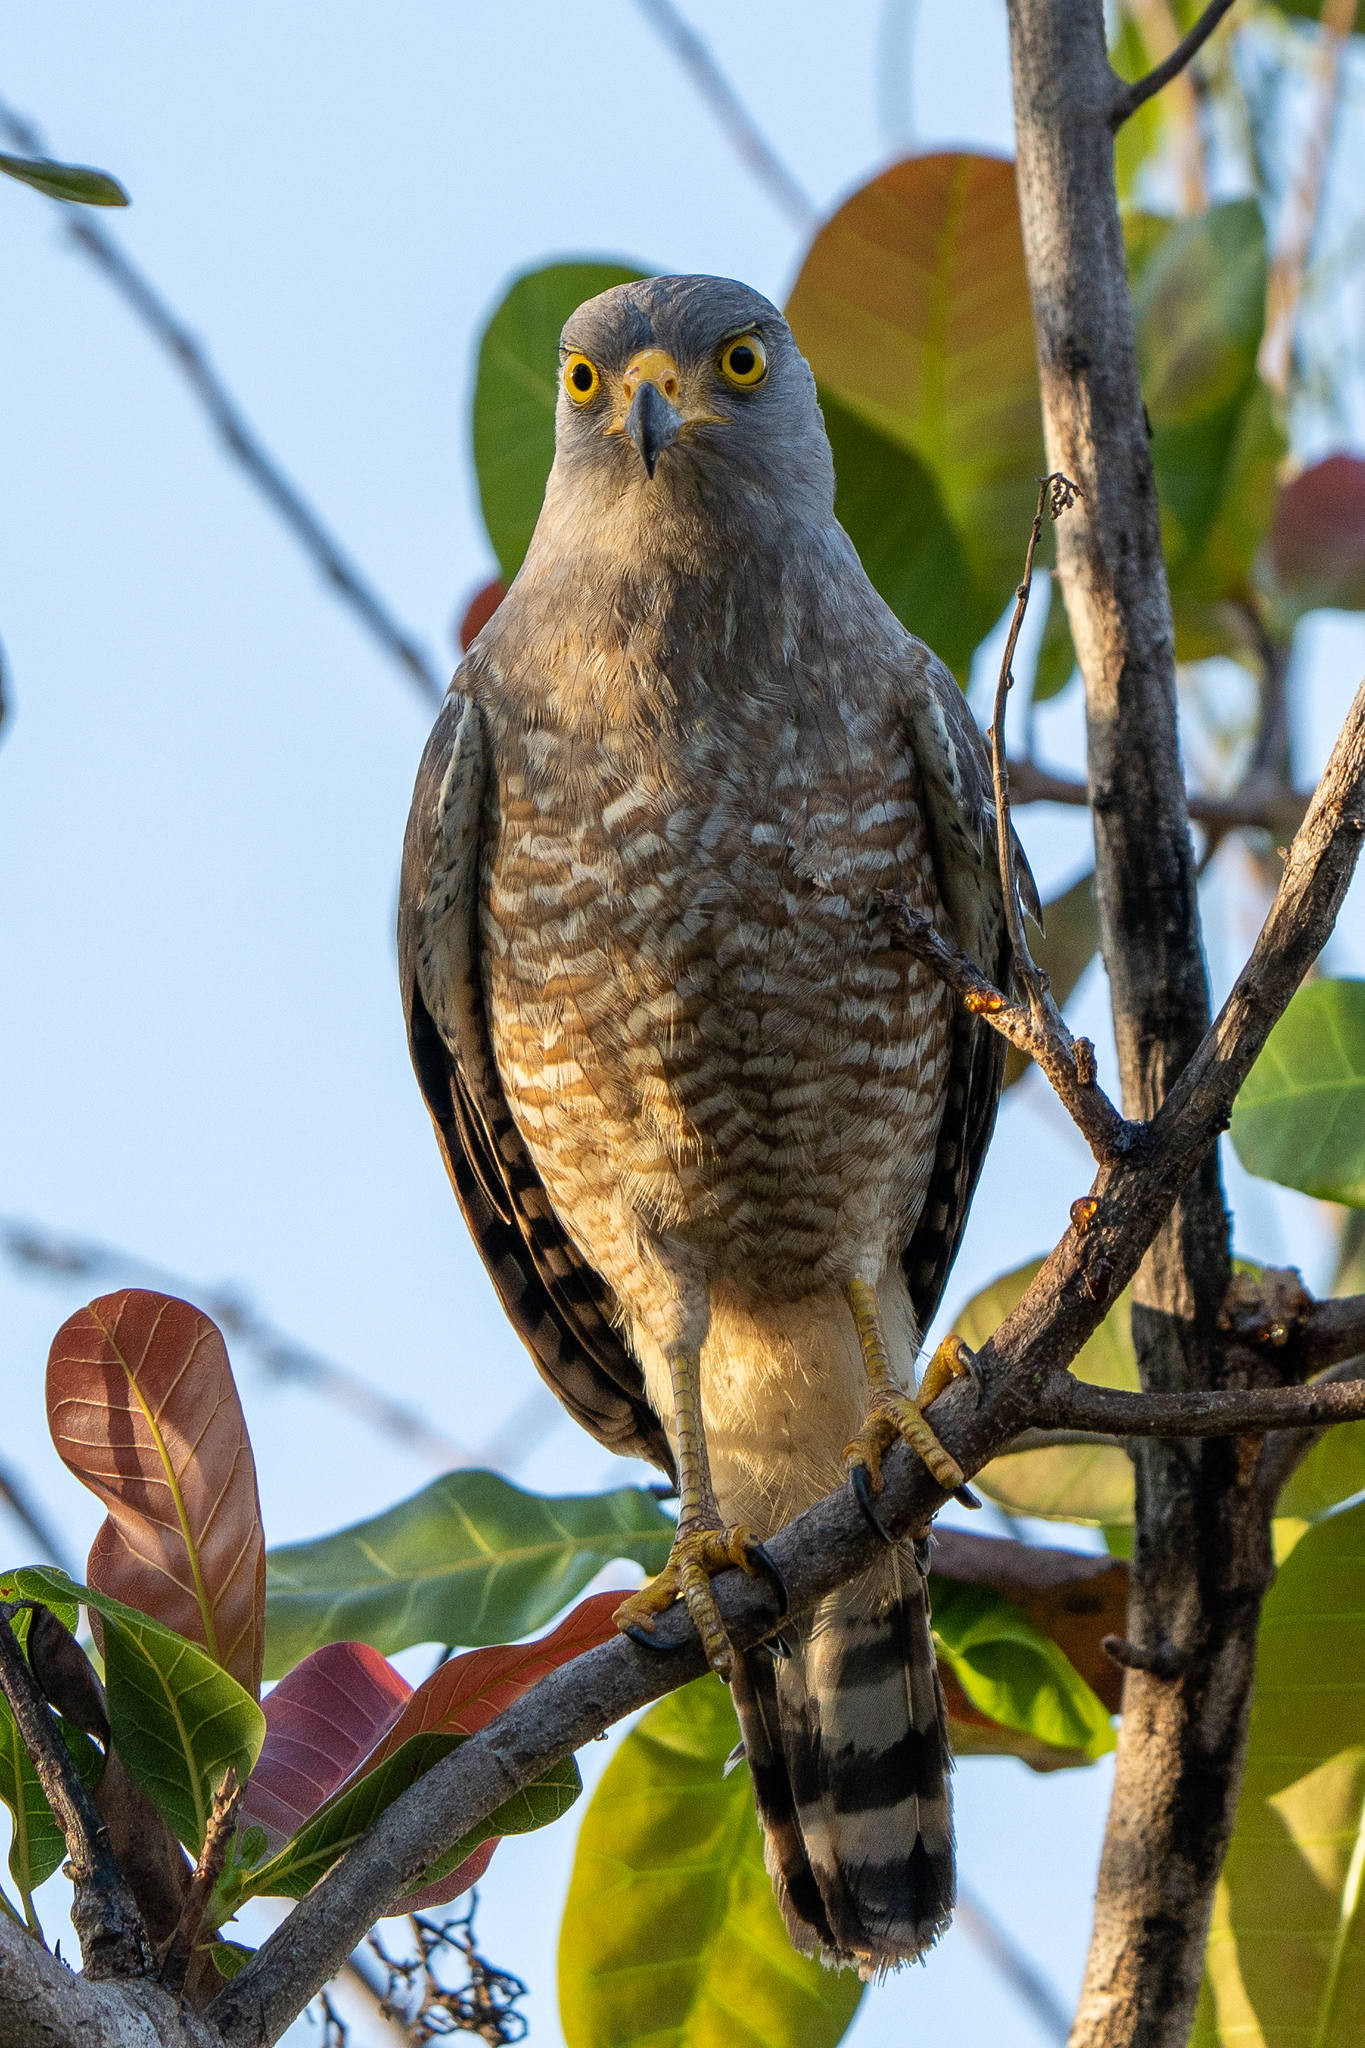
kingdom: Animalia
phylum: Chordata
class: Aves
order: Accipitriformes
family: Accipitridae
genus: Rupornis
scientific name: Rupornis magnirostris
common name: Roadside hawk
